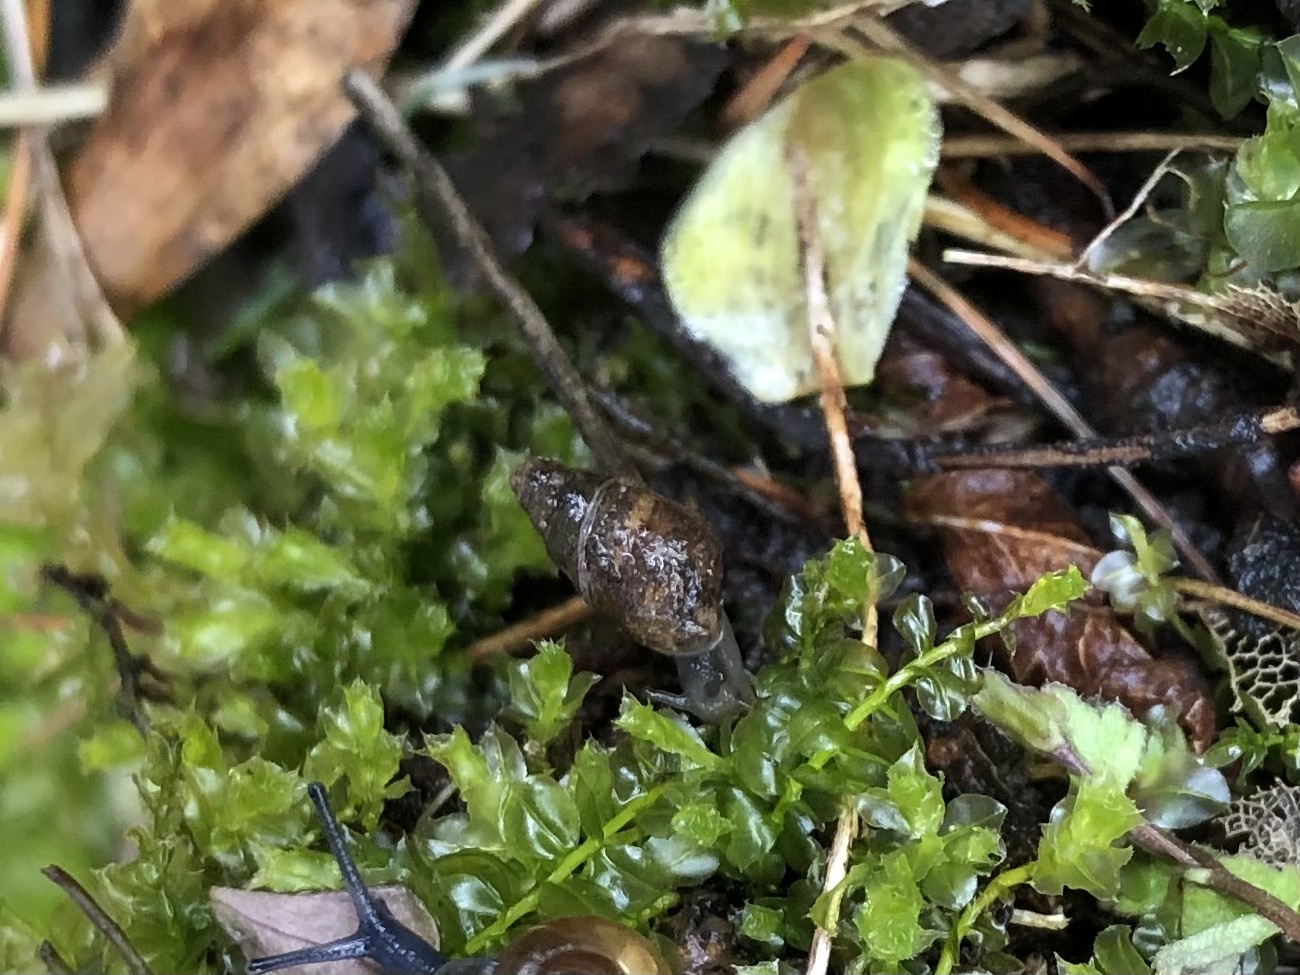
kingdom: Animalia
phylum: Mollusca
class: Gastropoda
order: Stylommatophora
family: Enidae
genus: Merdigera
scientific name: Merdigera obscura
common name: Lesser bulin
